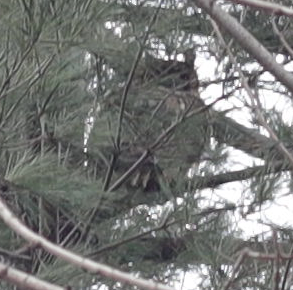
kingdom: Animalia
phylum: Chordata
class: Aves
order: Strigiformes
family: Strigidae
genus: Bubo
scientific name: Bubo virginianus
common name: Great horned owl
